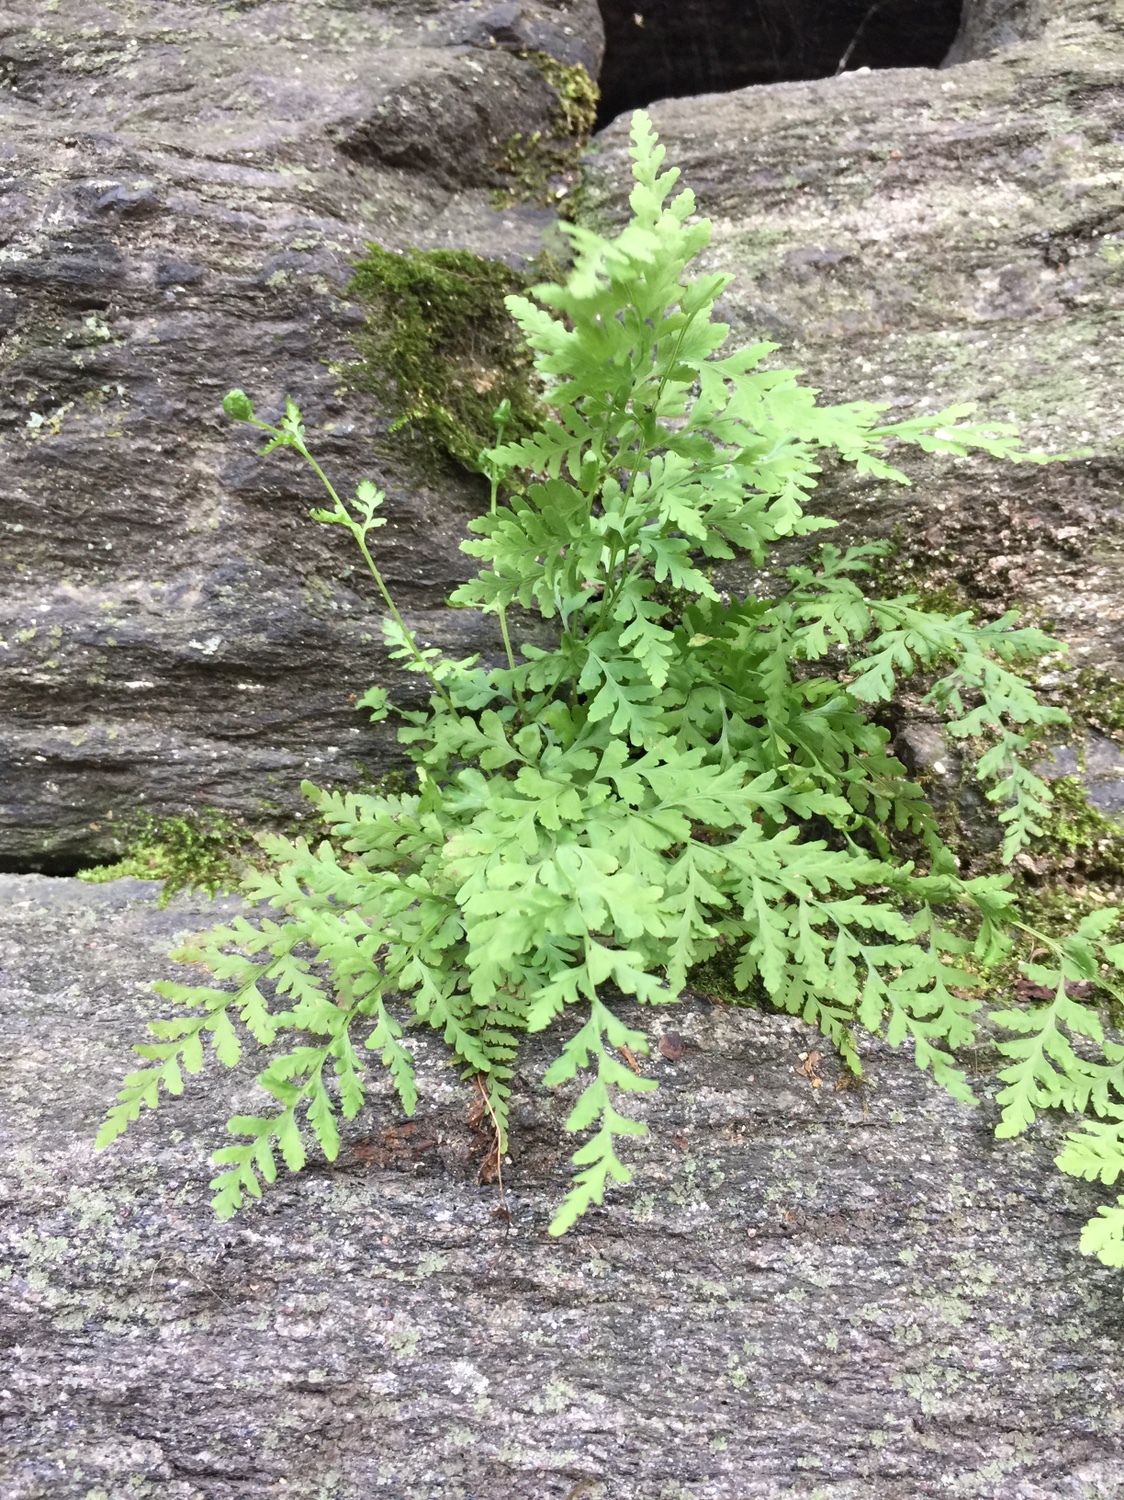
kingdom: Plantae
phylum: Tracheophyta
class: Polypodiopsida
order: Polypodiales
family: Woodsiaceae
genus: Physematium
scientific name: Physematium obtusum
